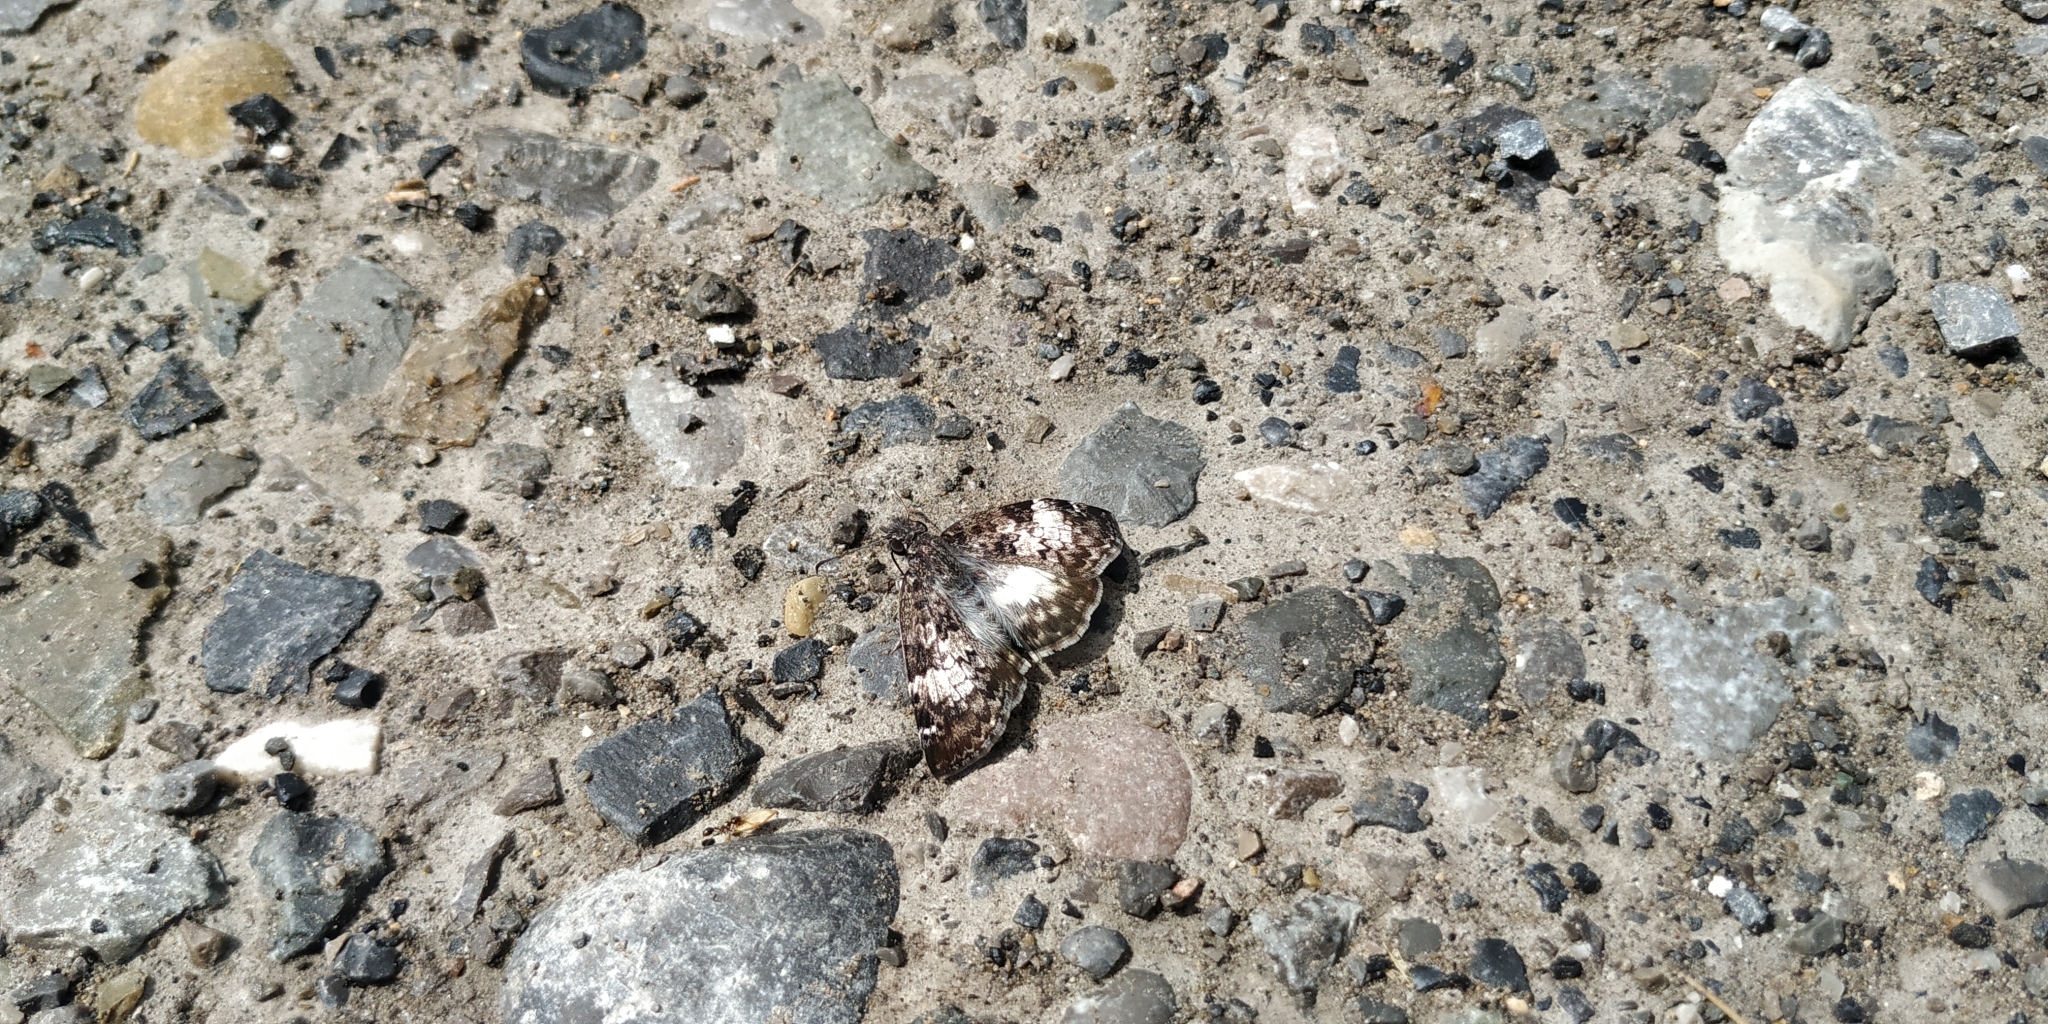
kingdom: Animalia
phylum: Arthropoda
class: Insecta
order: Lepidoptera
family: Hesperiidae
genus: Chiothion
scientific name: Chiothion georgina
